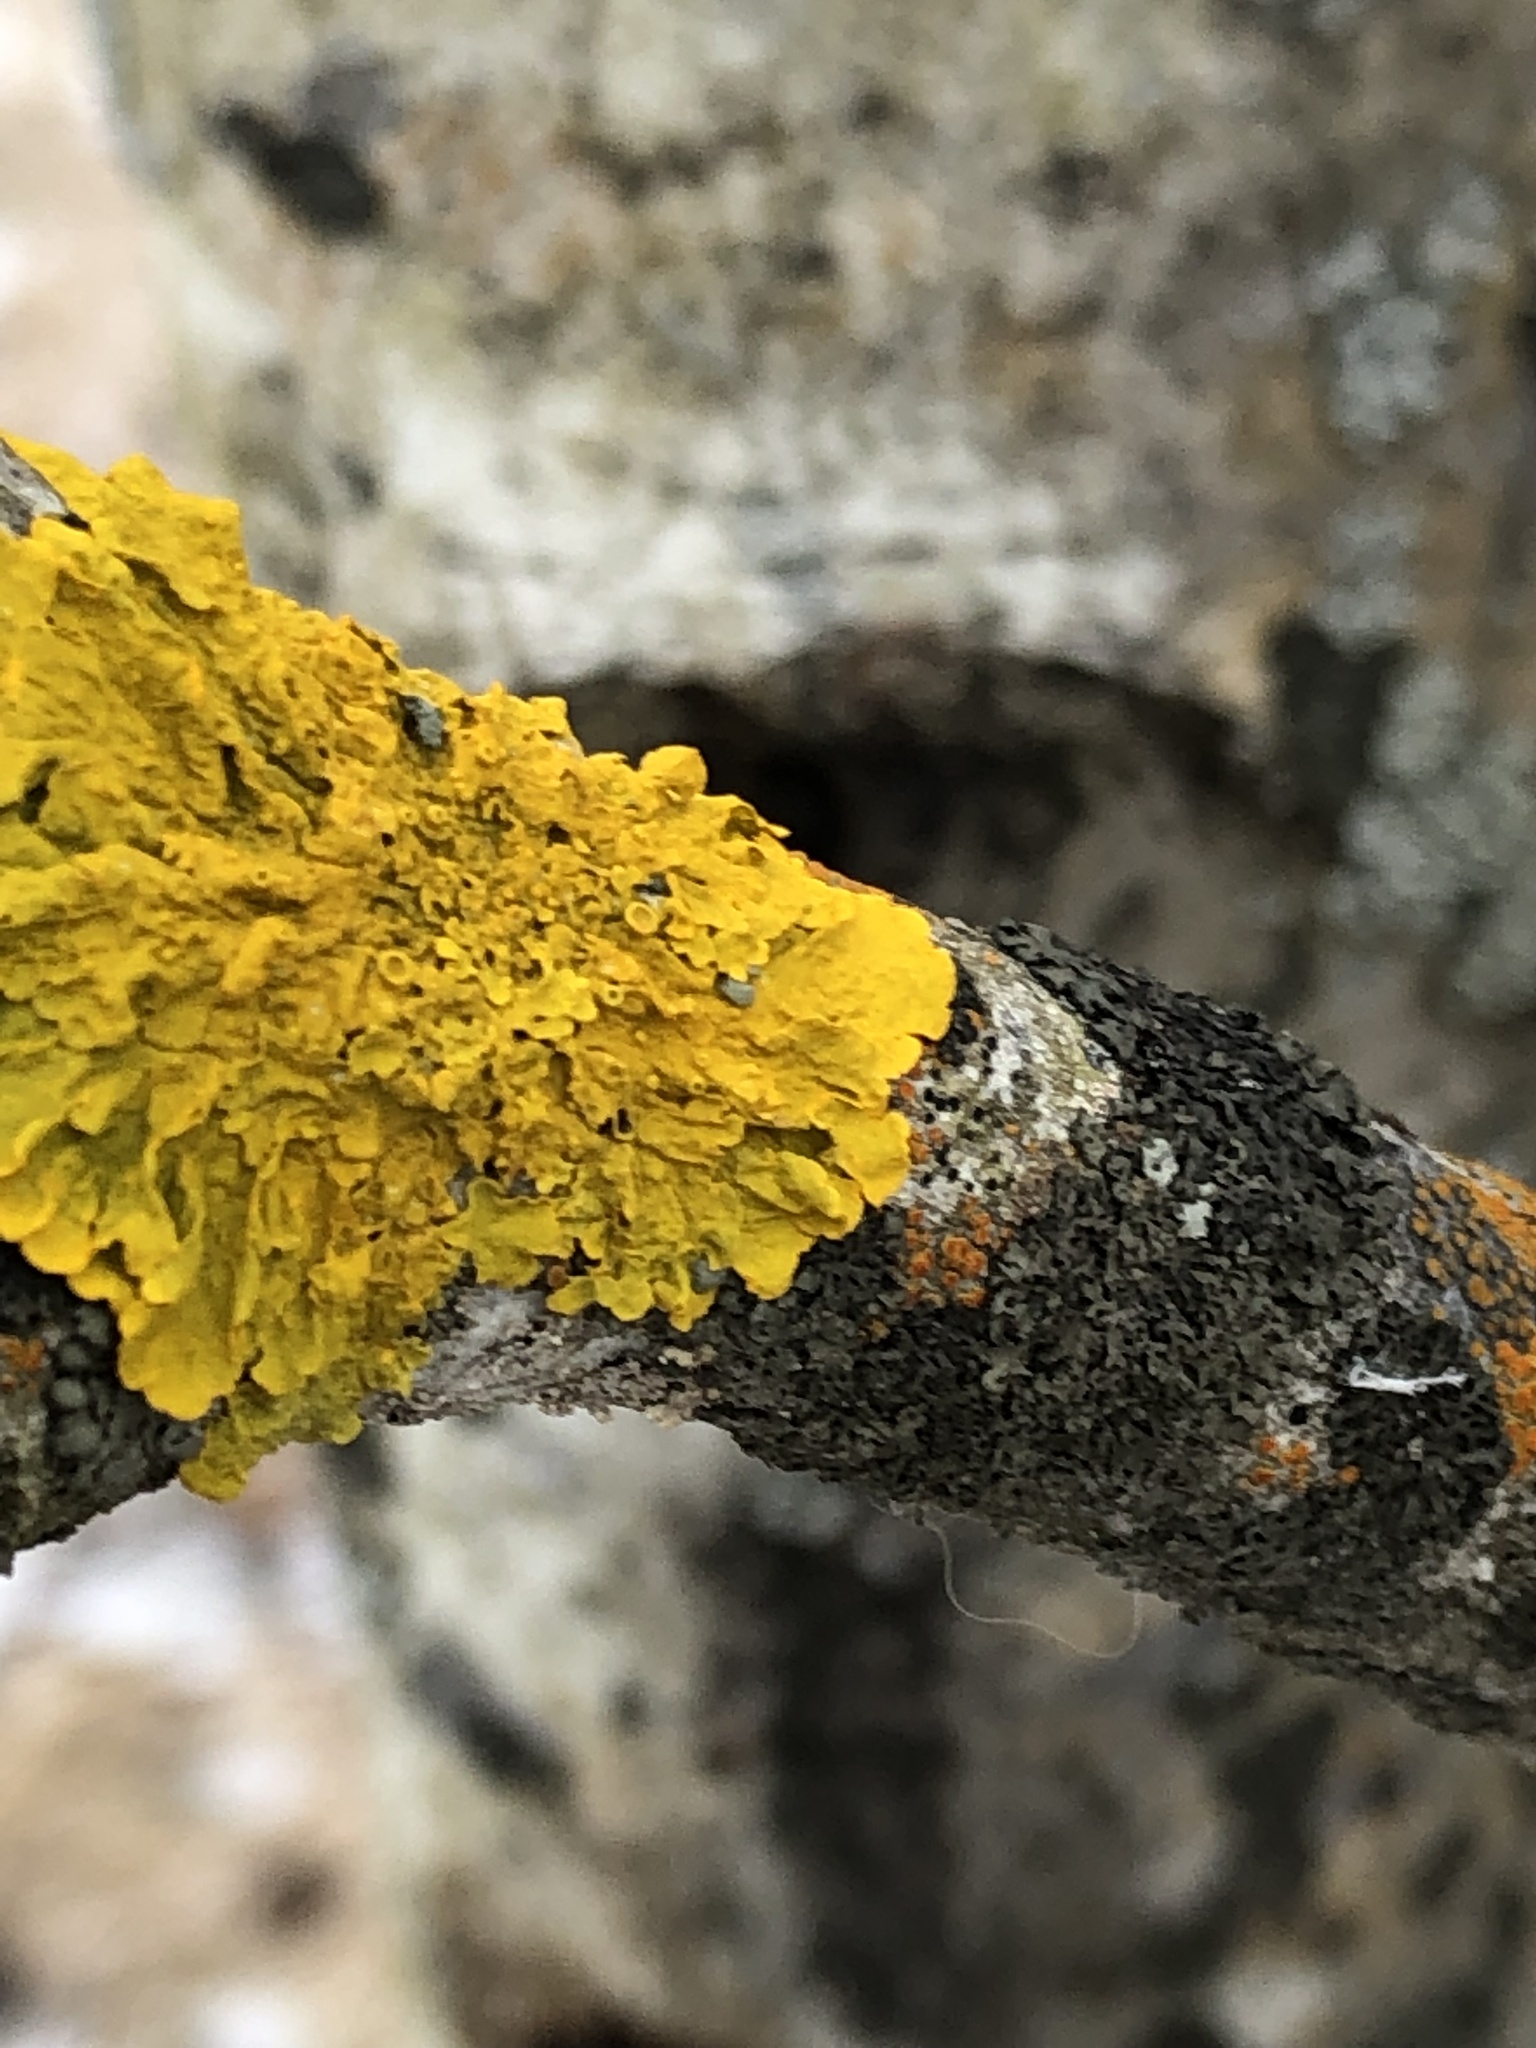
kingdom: Fungi
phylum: Ascomycota
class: Lecanoromycetes
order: Teloschistales
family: Teloschistaceae
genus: Xanthoria
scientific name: Xanthoria parietina
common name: Common orange lichen
